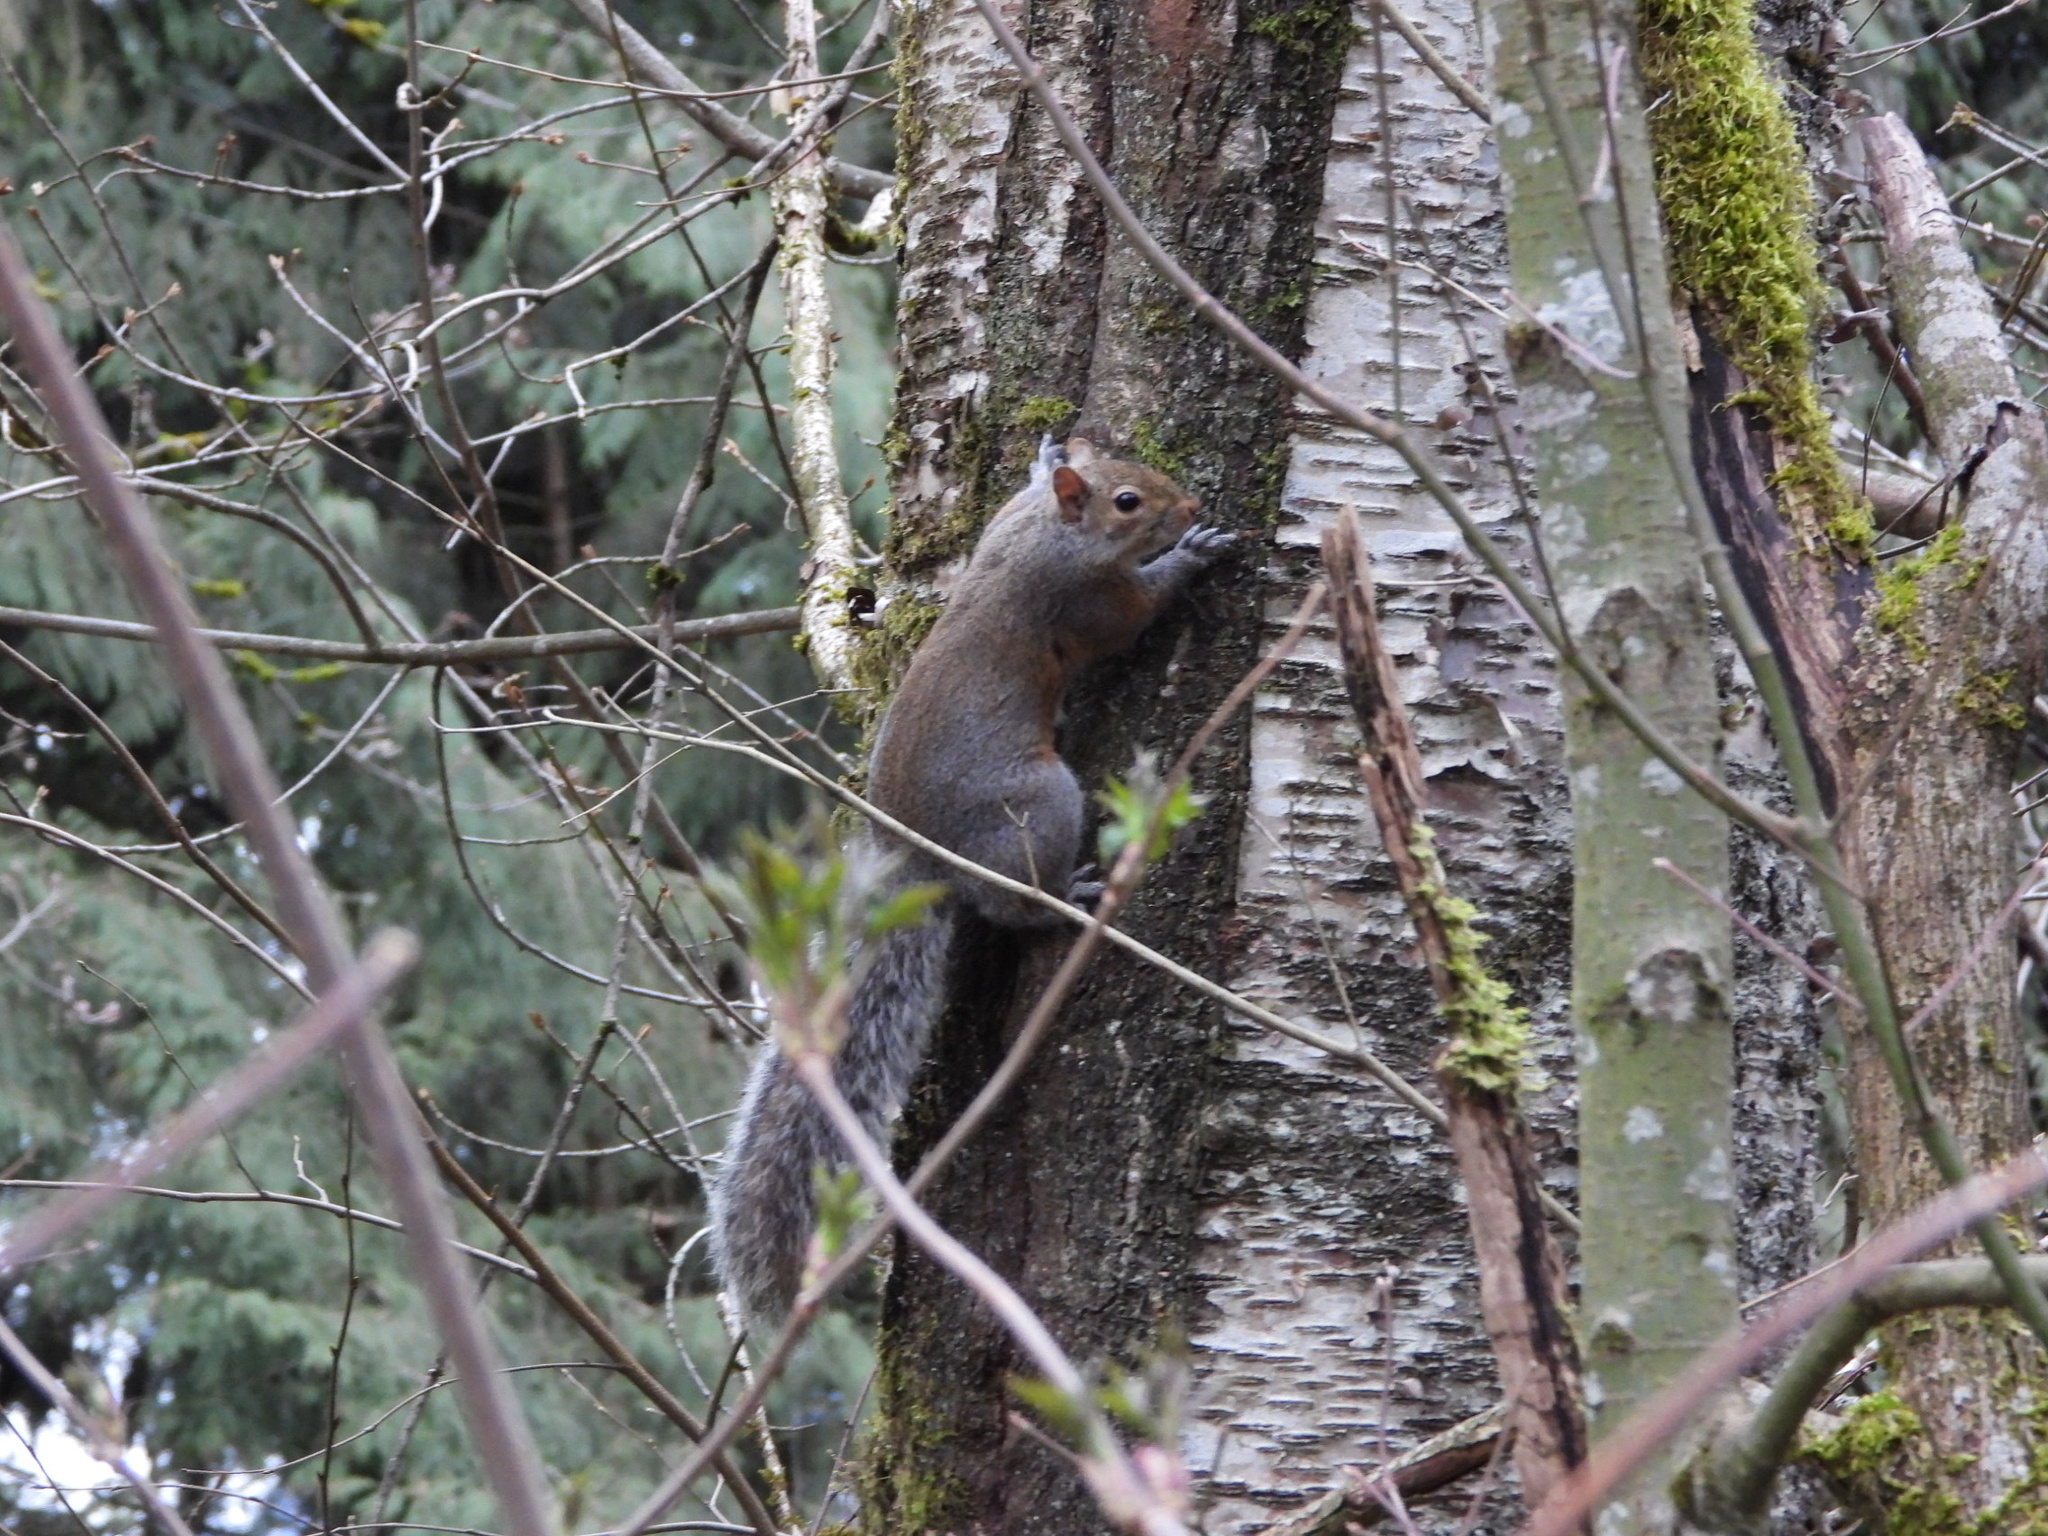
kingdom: Animalia
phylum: Chordata
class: Mammalia
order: Rodentia
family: Sciuridae
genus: Sciurus
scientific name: Sciurus carolinensis
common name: Eastern gray squirrel
